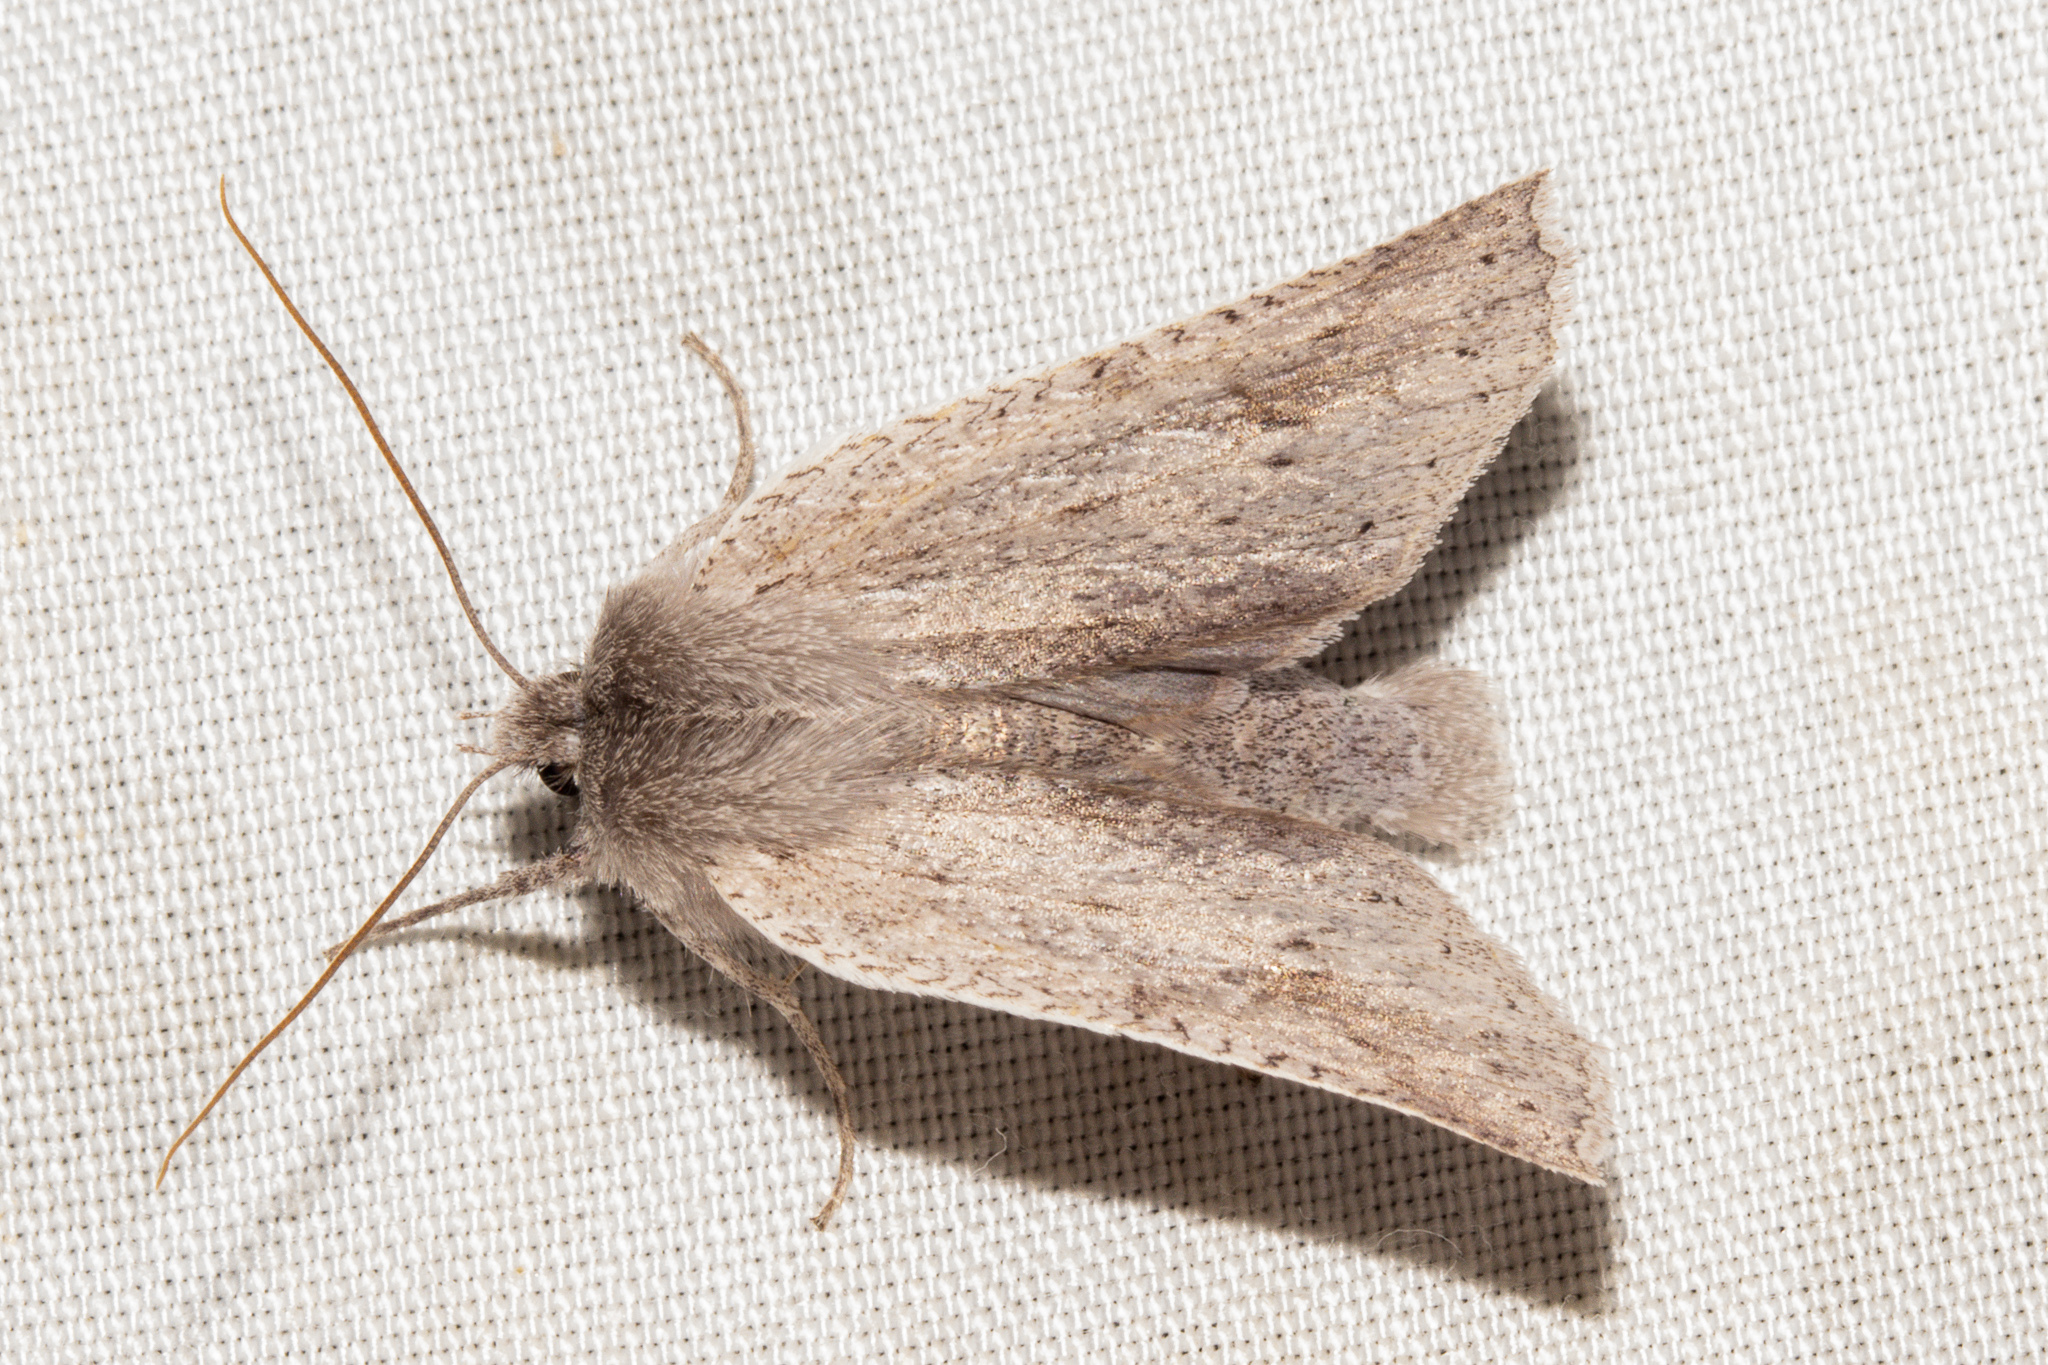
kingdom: Animalia
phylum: Arthropoda
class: Insecta
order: Lepidoptera
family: Geometridae
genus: Declana
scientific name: Declana leptomera
